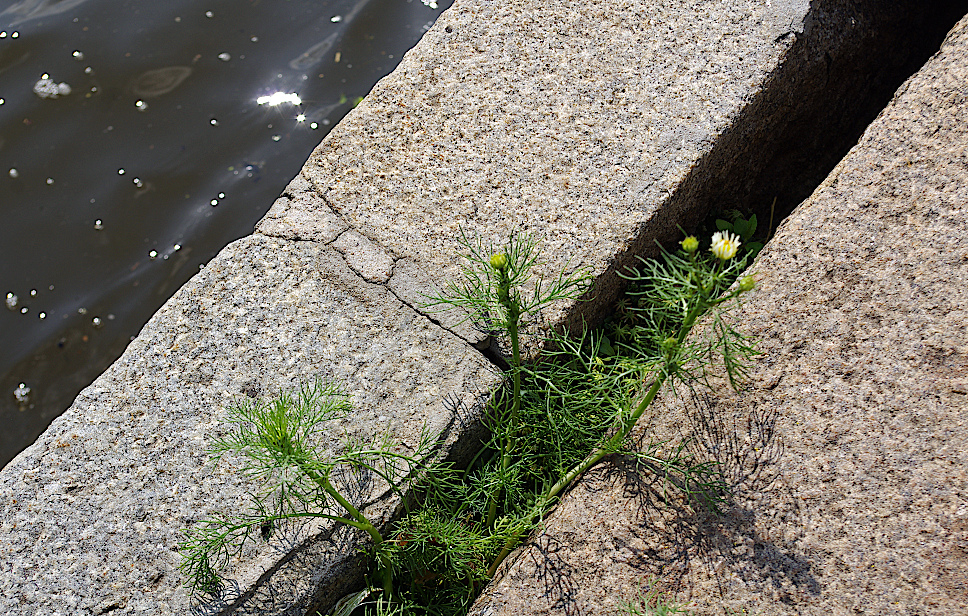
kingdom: Plantae
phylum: Tracheophyta
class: Magnoliopsida
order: Asterales
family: Asteraceae
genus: Tripleurospermum
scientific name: Tripleurospermum inodorum
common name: Scentless mayweed
